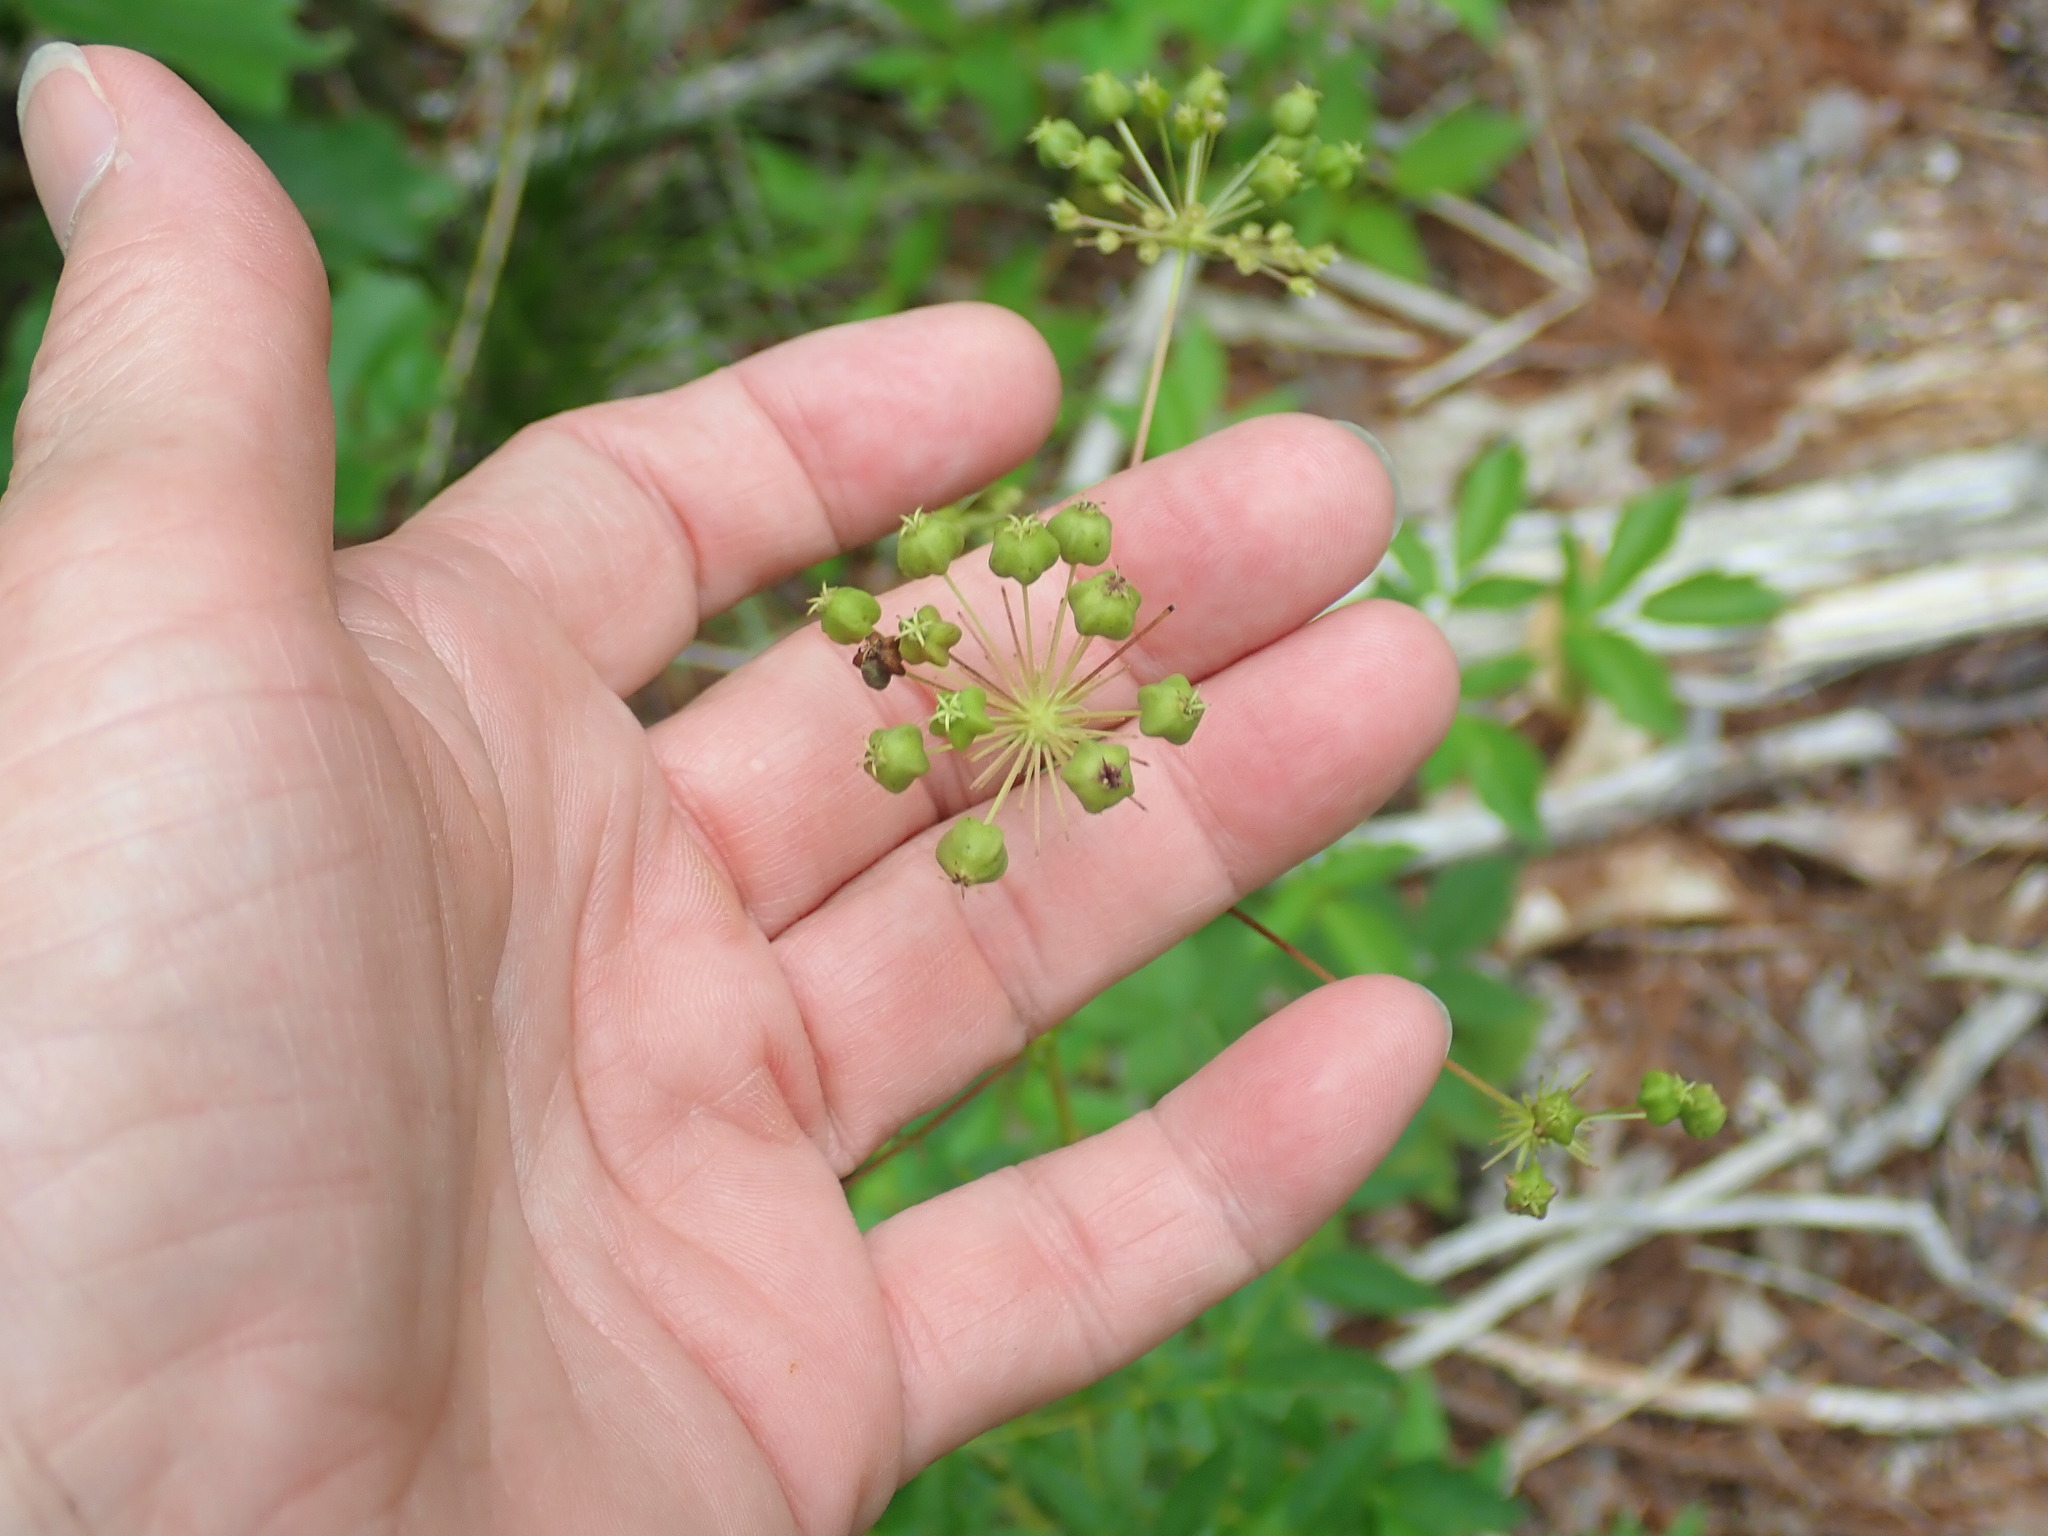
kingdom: Plantae
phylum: Tracheophyta
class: Magnoliopsida
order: Apiales
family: Araliaceae
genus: Aralia
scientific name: Aralia hispida
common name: Bristly sarsaparilla
